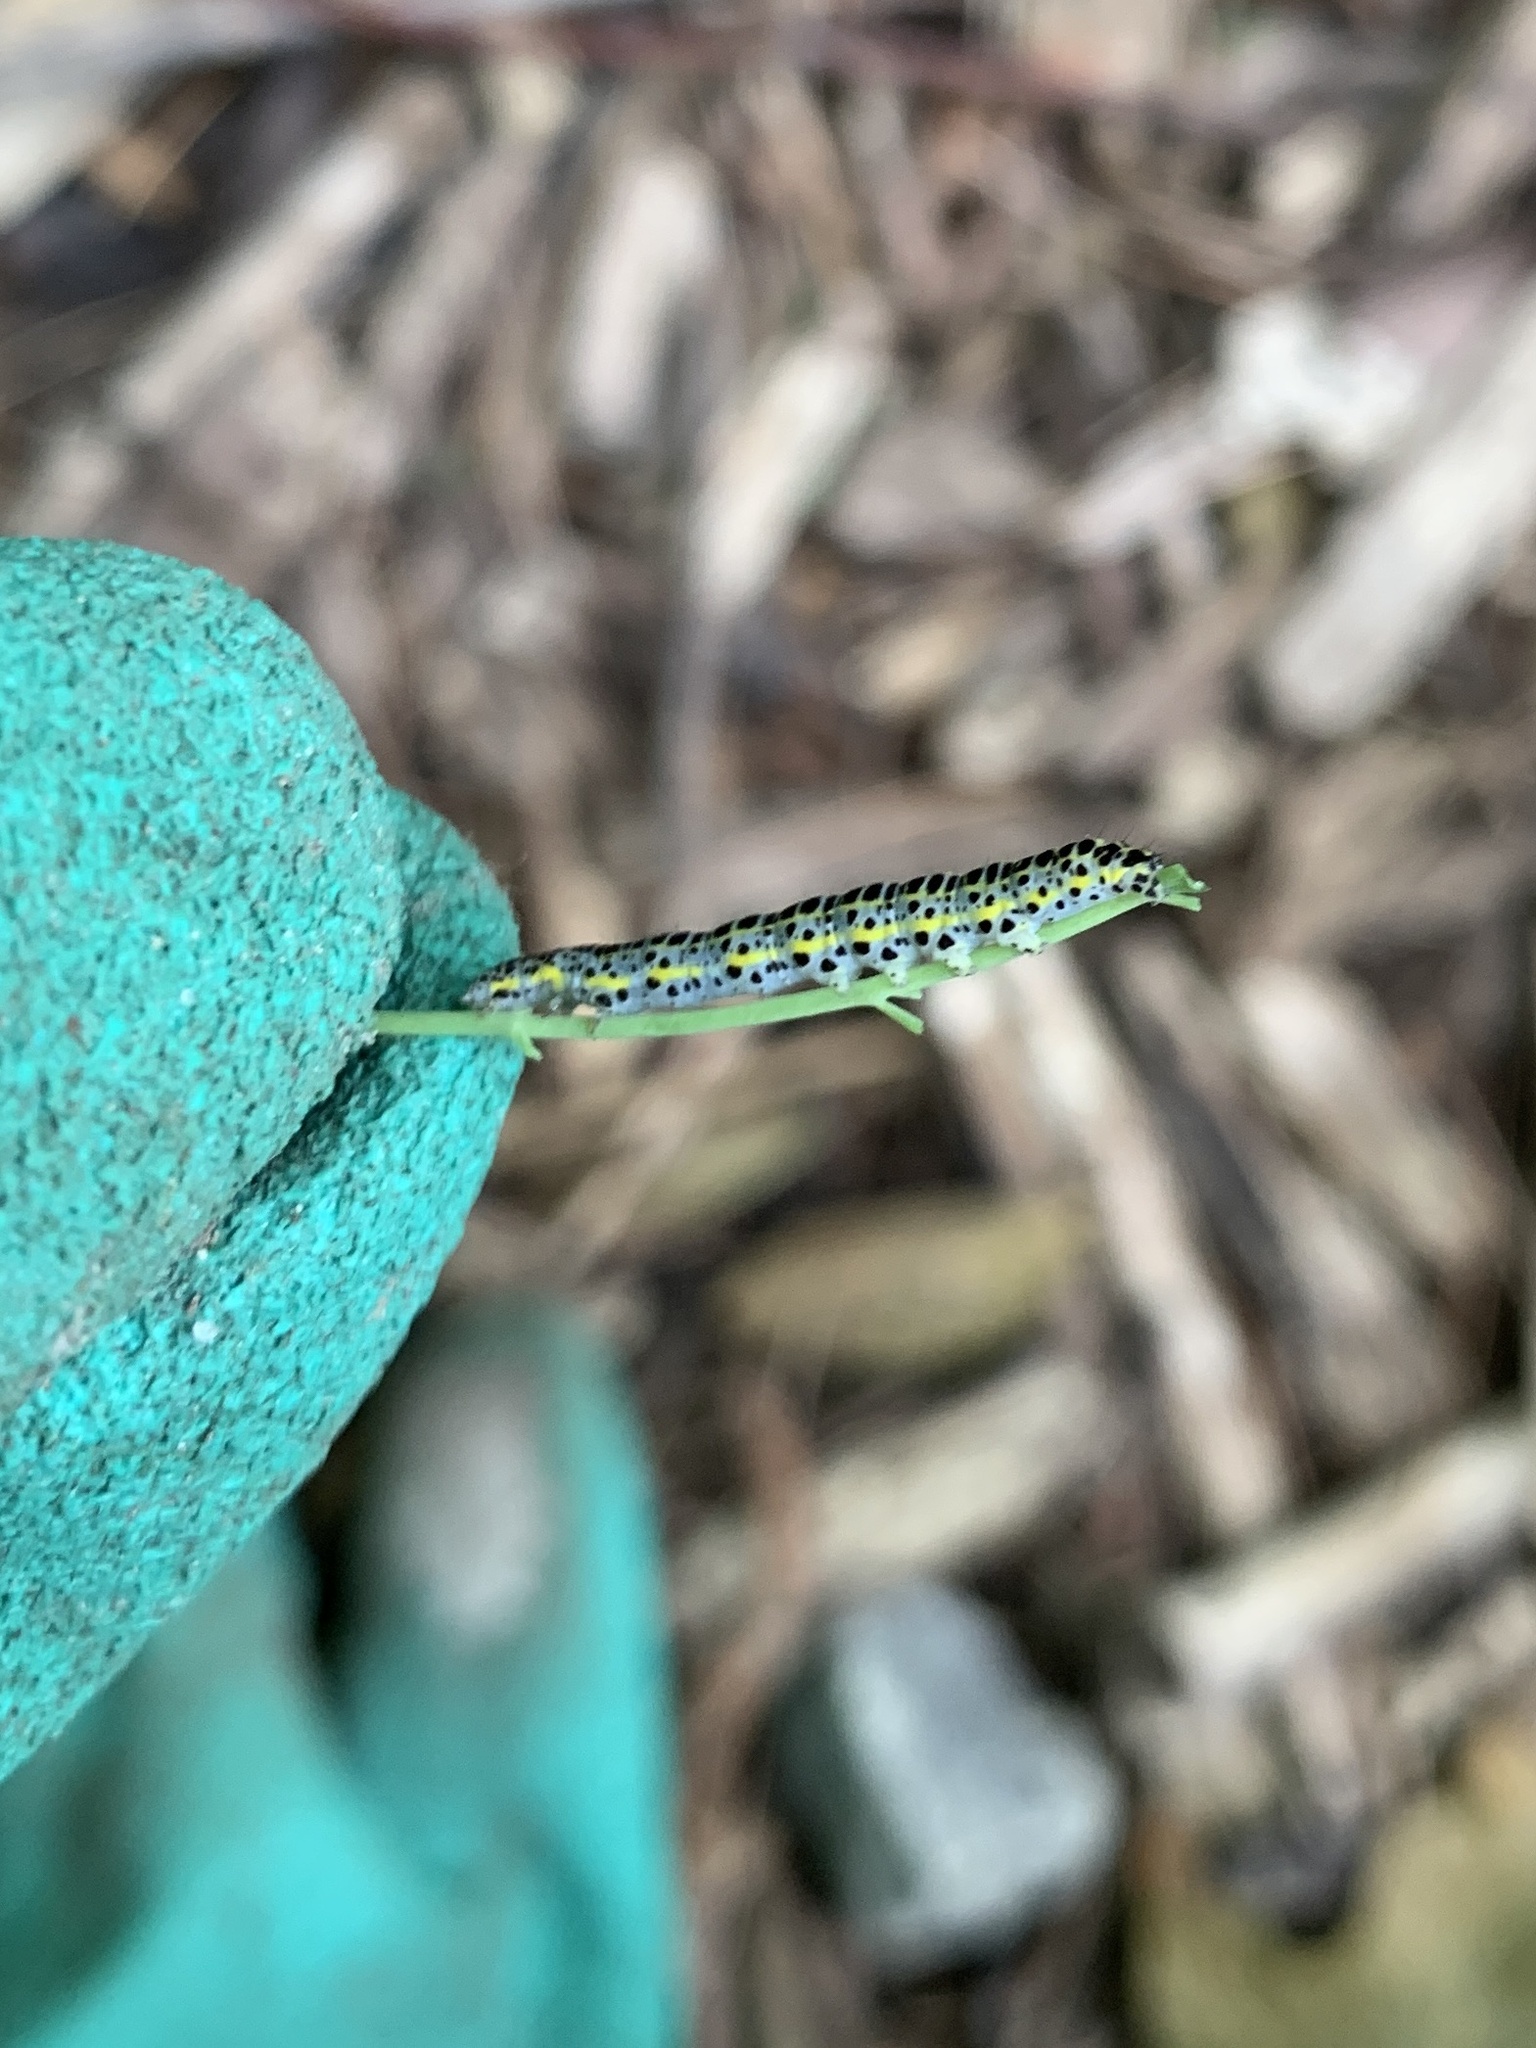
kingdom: Animalia
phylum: Arthropoda
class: Insecta
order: Lepidoptera
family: Noctuidae
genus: Calophasia
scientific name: Calophasia lunula
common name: Toadflax brocade
